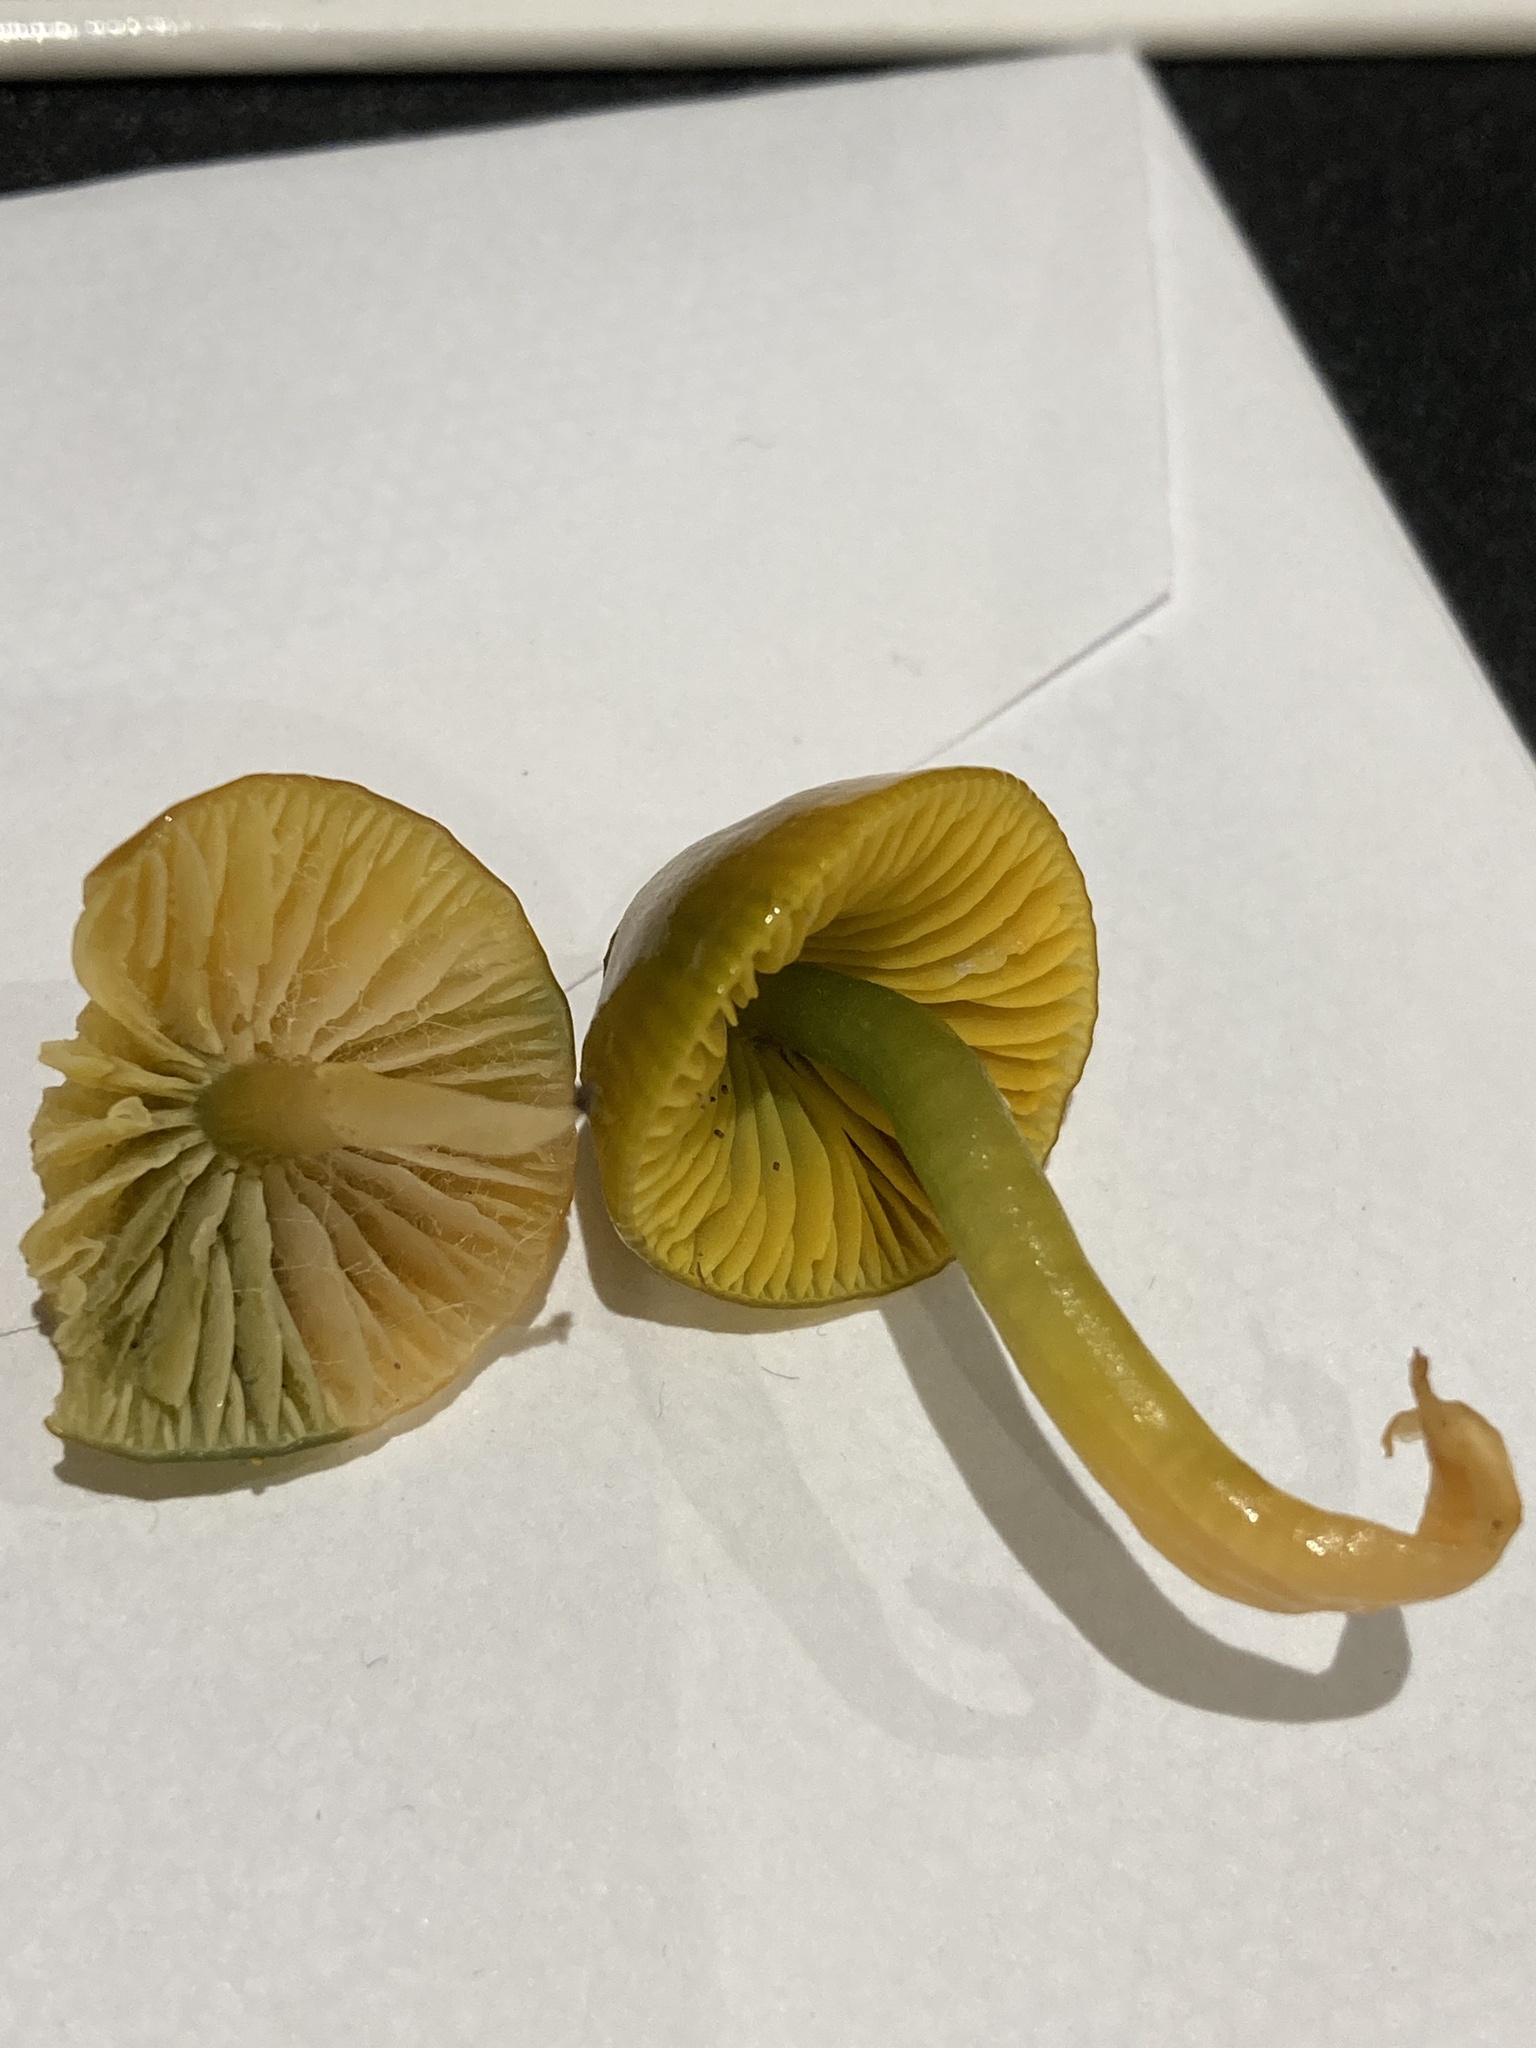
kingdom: Fungi
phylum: Basidiomycota
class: Agaricomycetes
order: Agaricales
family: Hygrophoraceae
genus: Gliophorus
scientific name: Gliophorus psittacinus
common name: Parrot wax-cap
